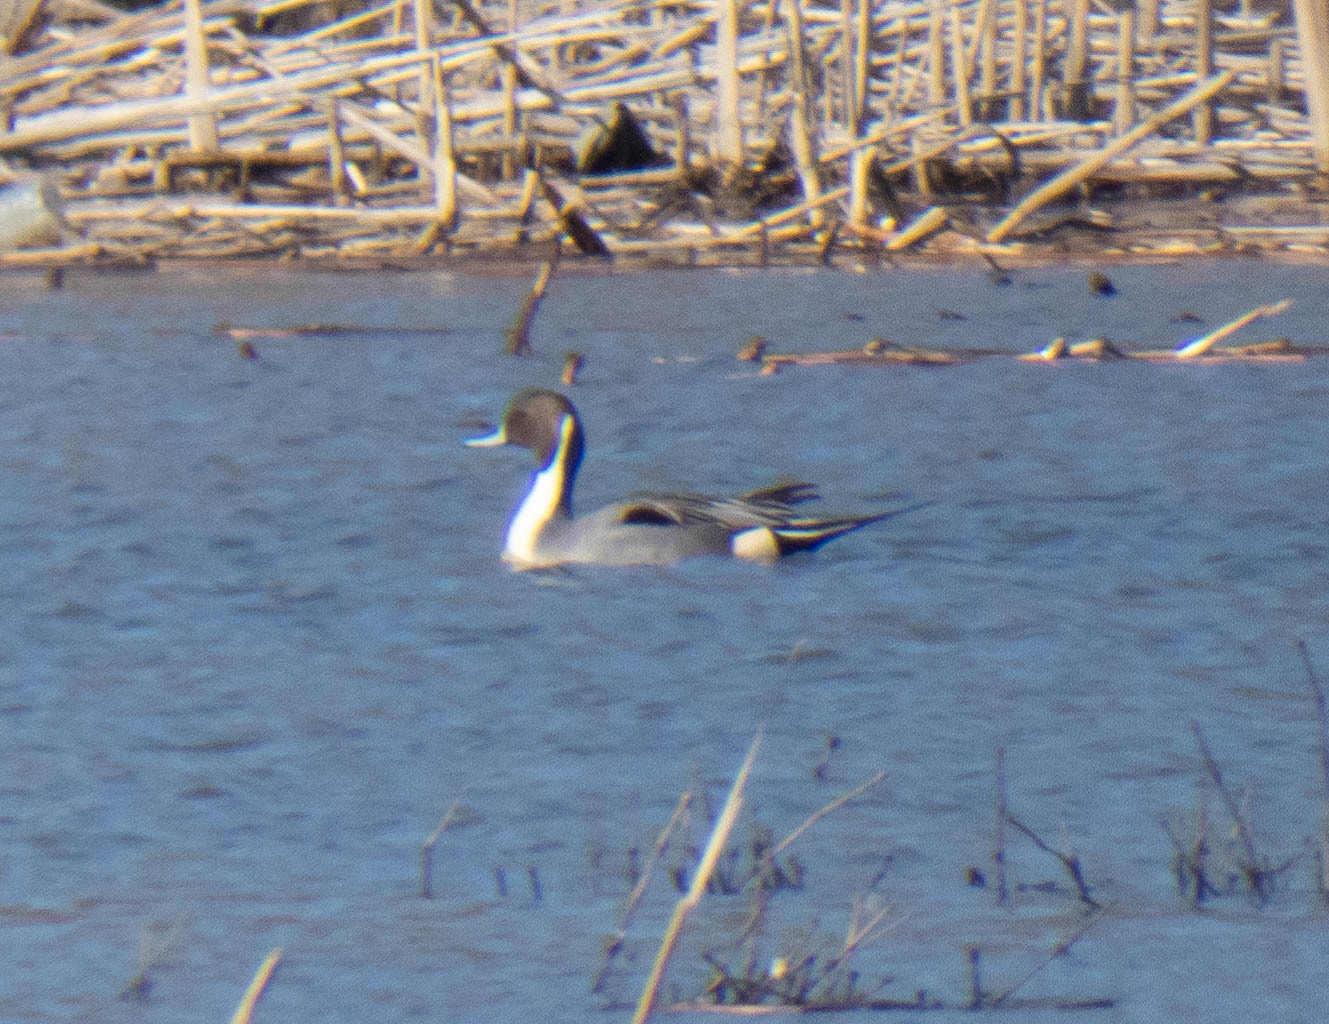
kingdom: Animalia
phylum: Chordata
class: Aves
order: Anseriformes
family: Anatidae
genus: Anas
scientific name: Anas acuta
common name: Northern pintail
